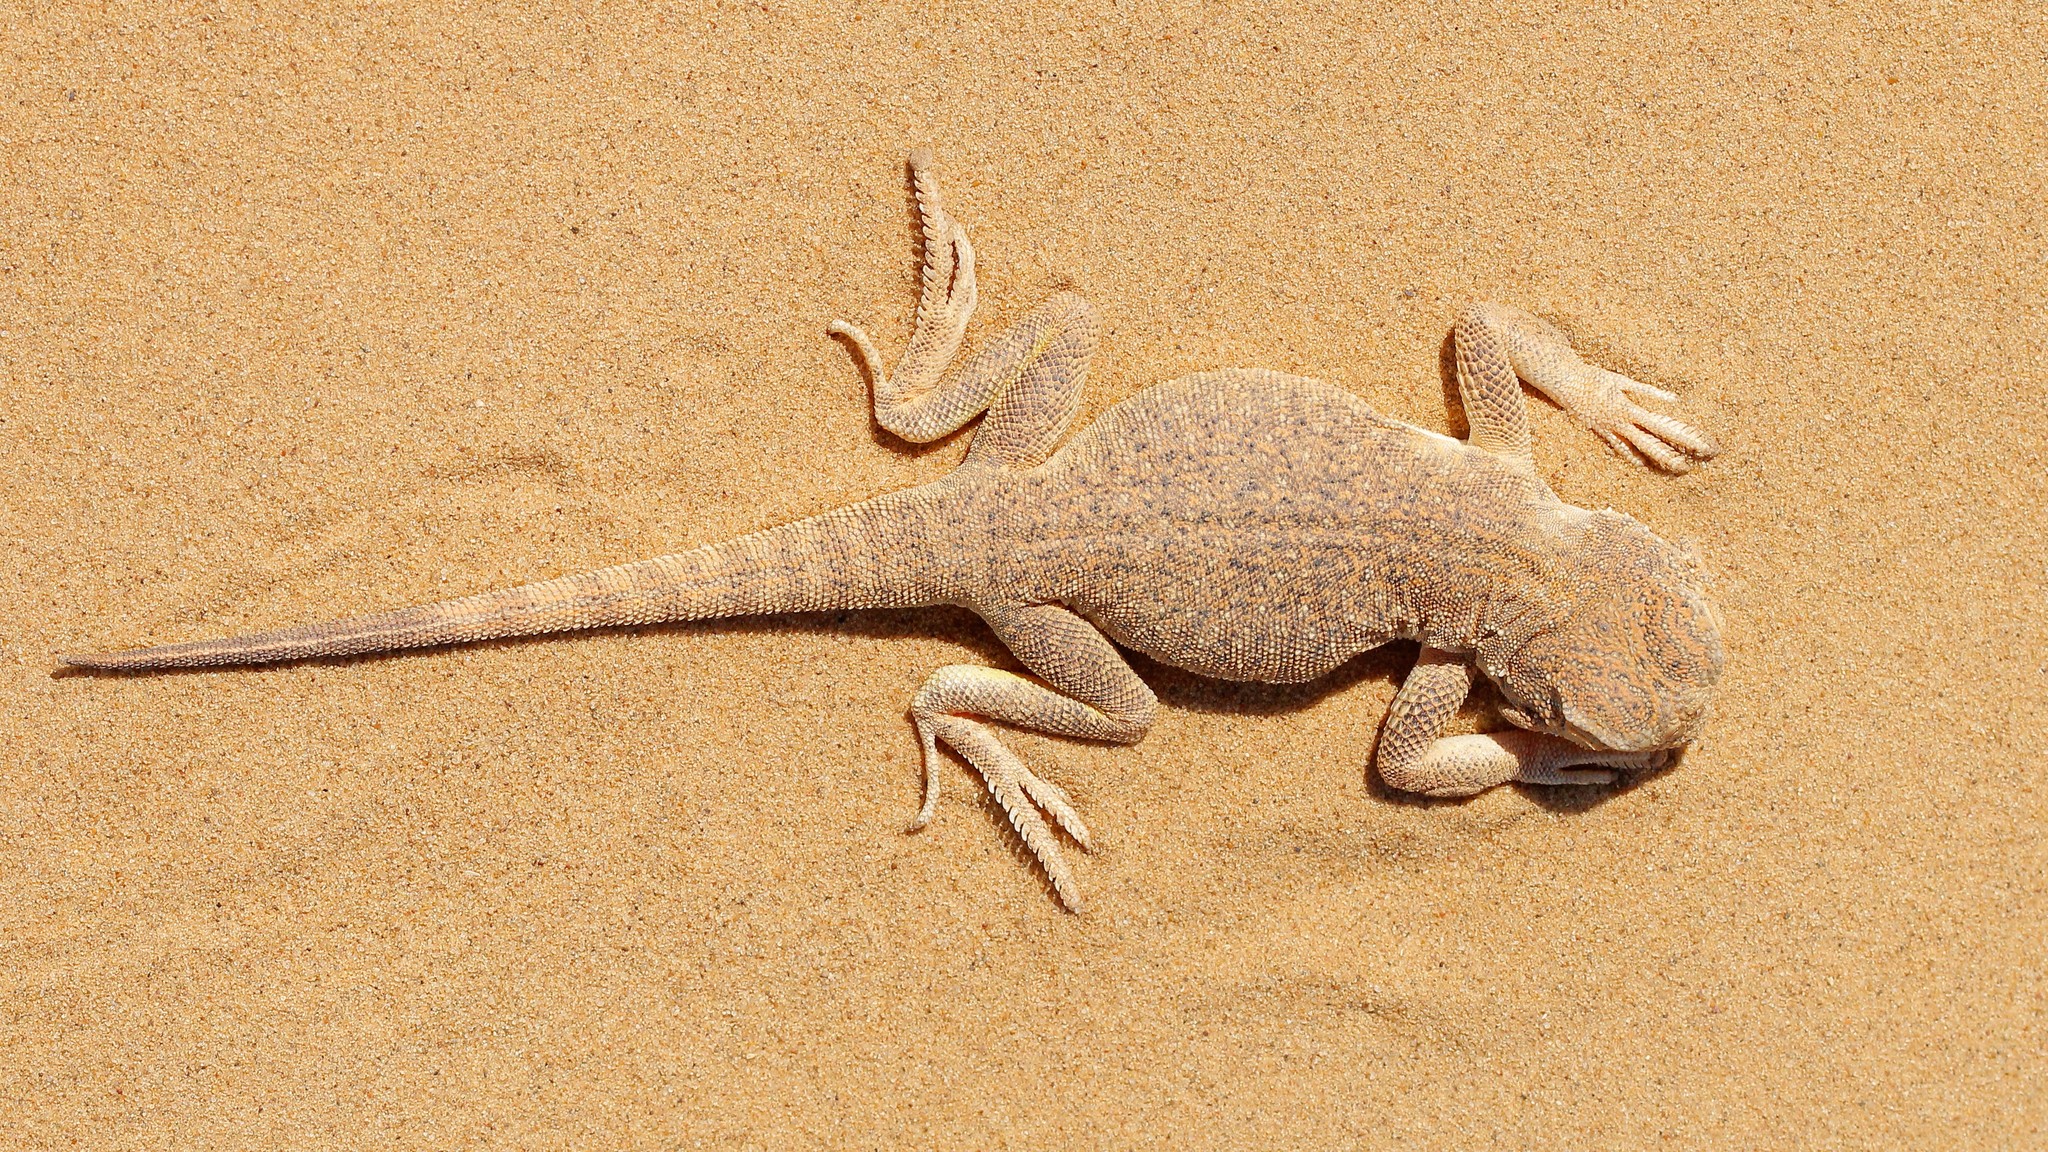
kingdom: Animalia
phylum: Chordata
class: Squamata
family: Agamidae
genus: Phrynocephalus
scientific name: Phrynocephalus mystaceus
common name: Secret toadhead agama
